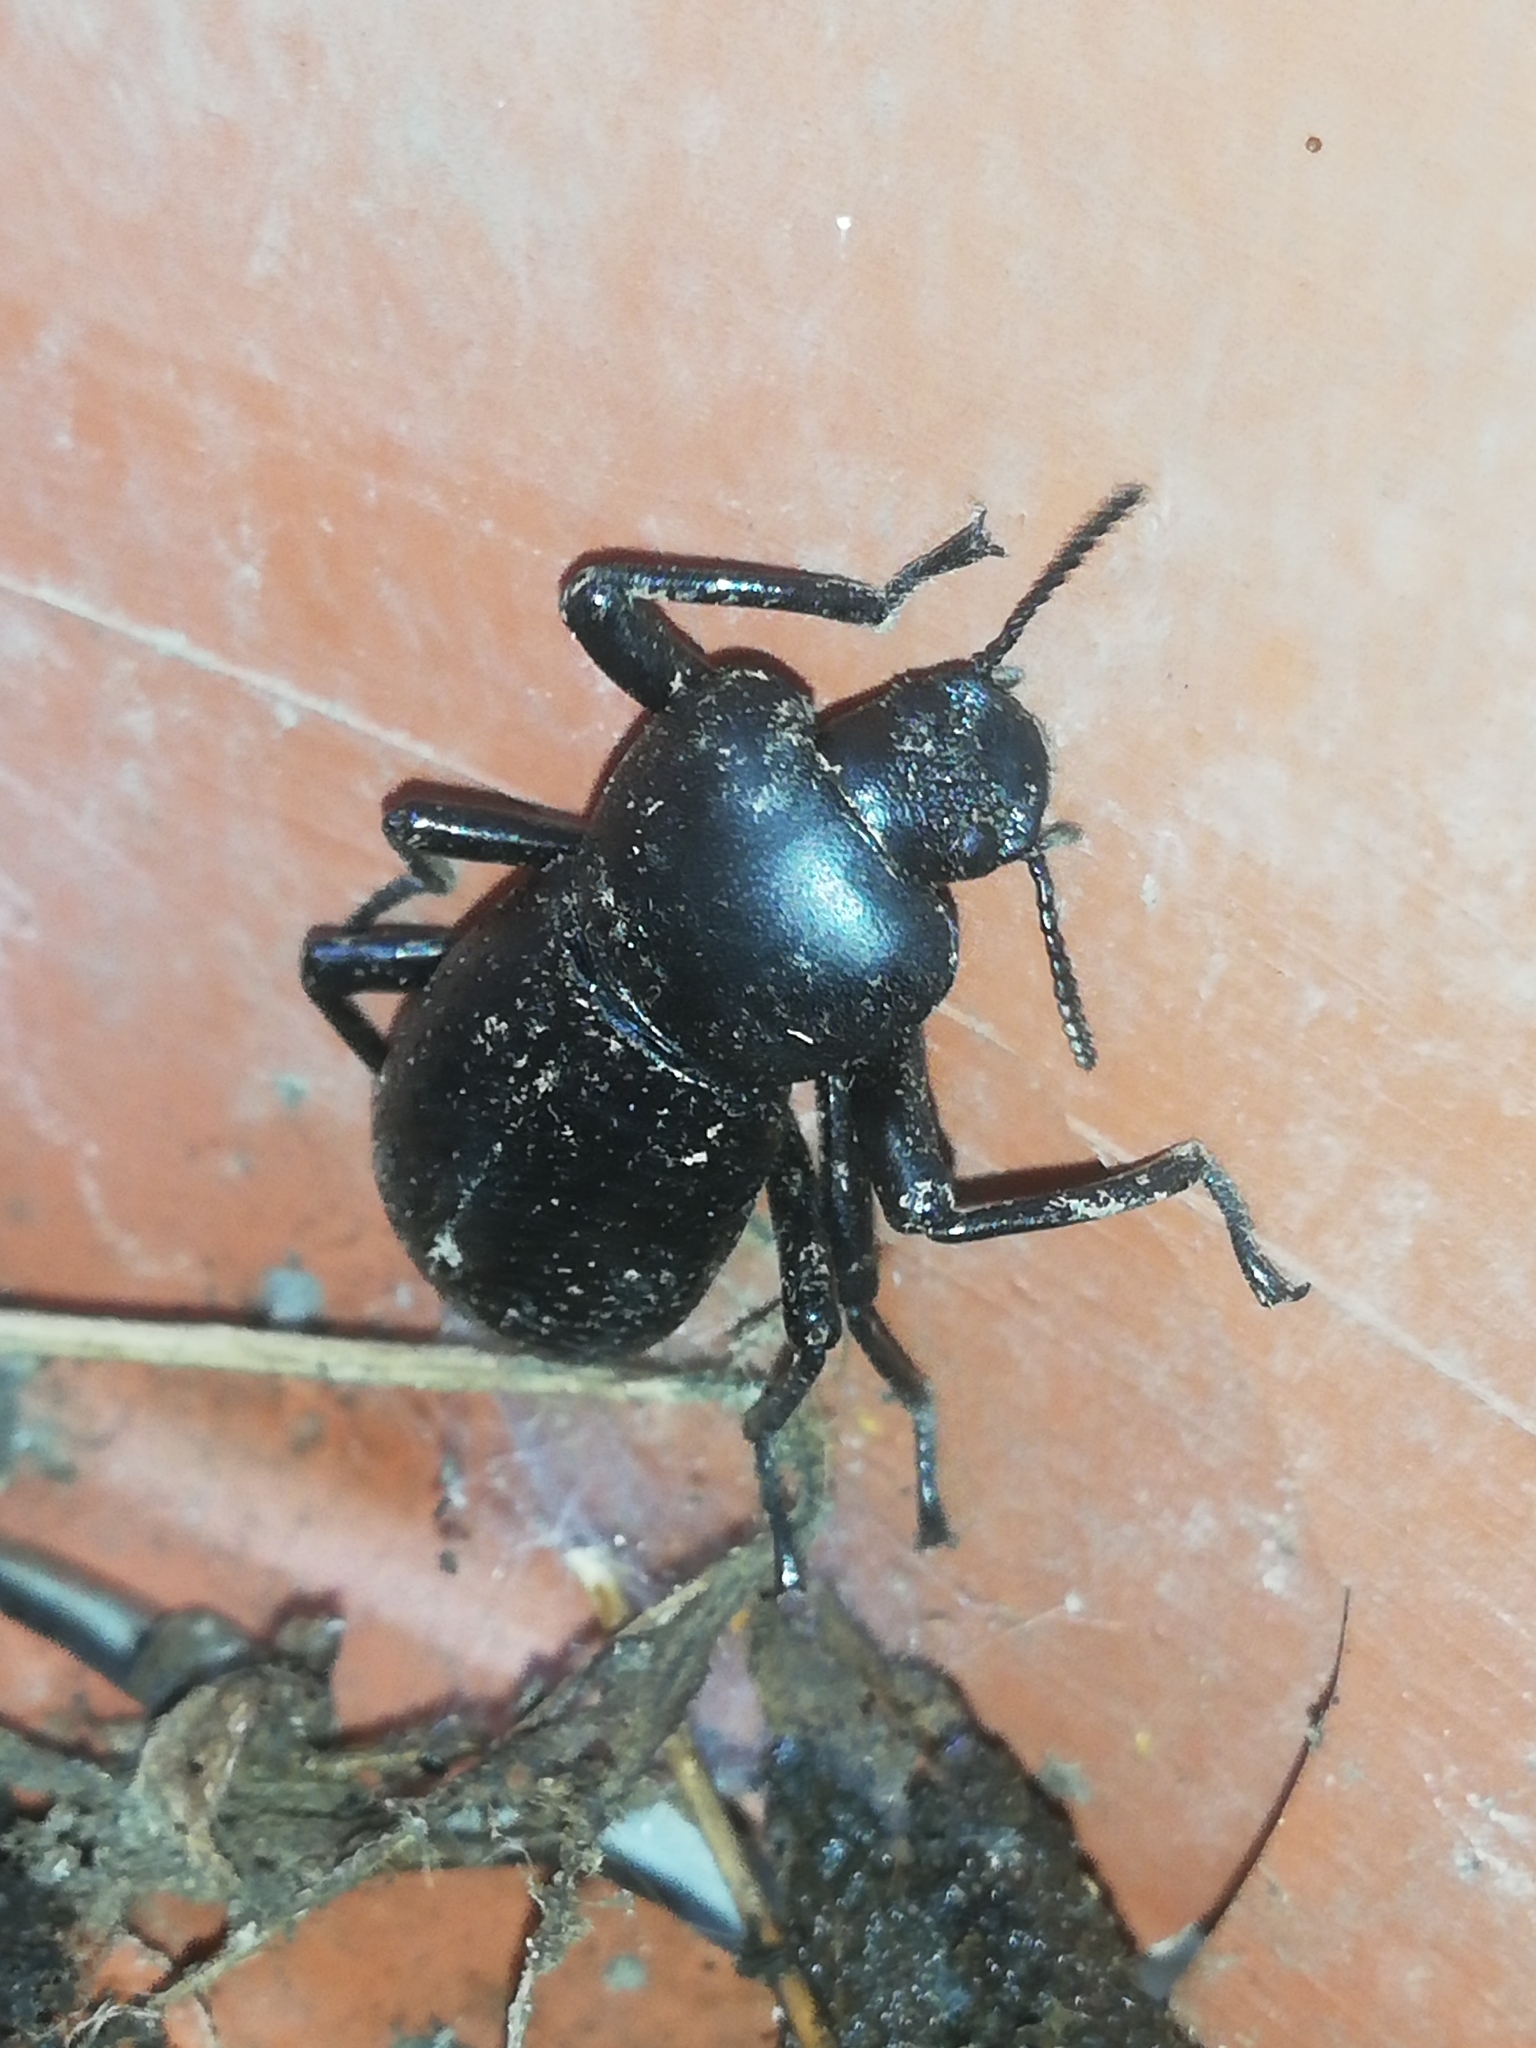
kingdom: Animalia
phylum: Arthropoda
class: Insecta
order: Coleoptera
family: Tenebrionidae
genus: Oenopion
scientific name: Oenopion zopheroides
